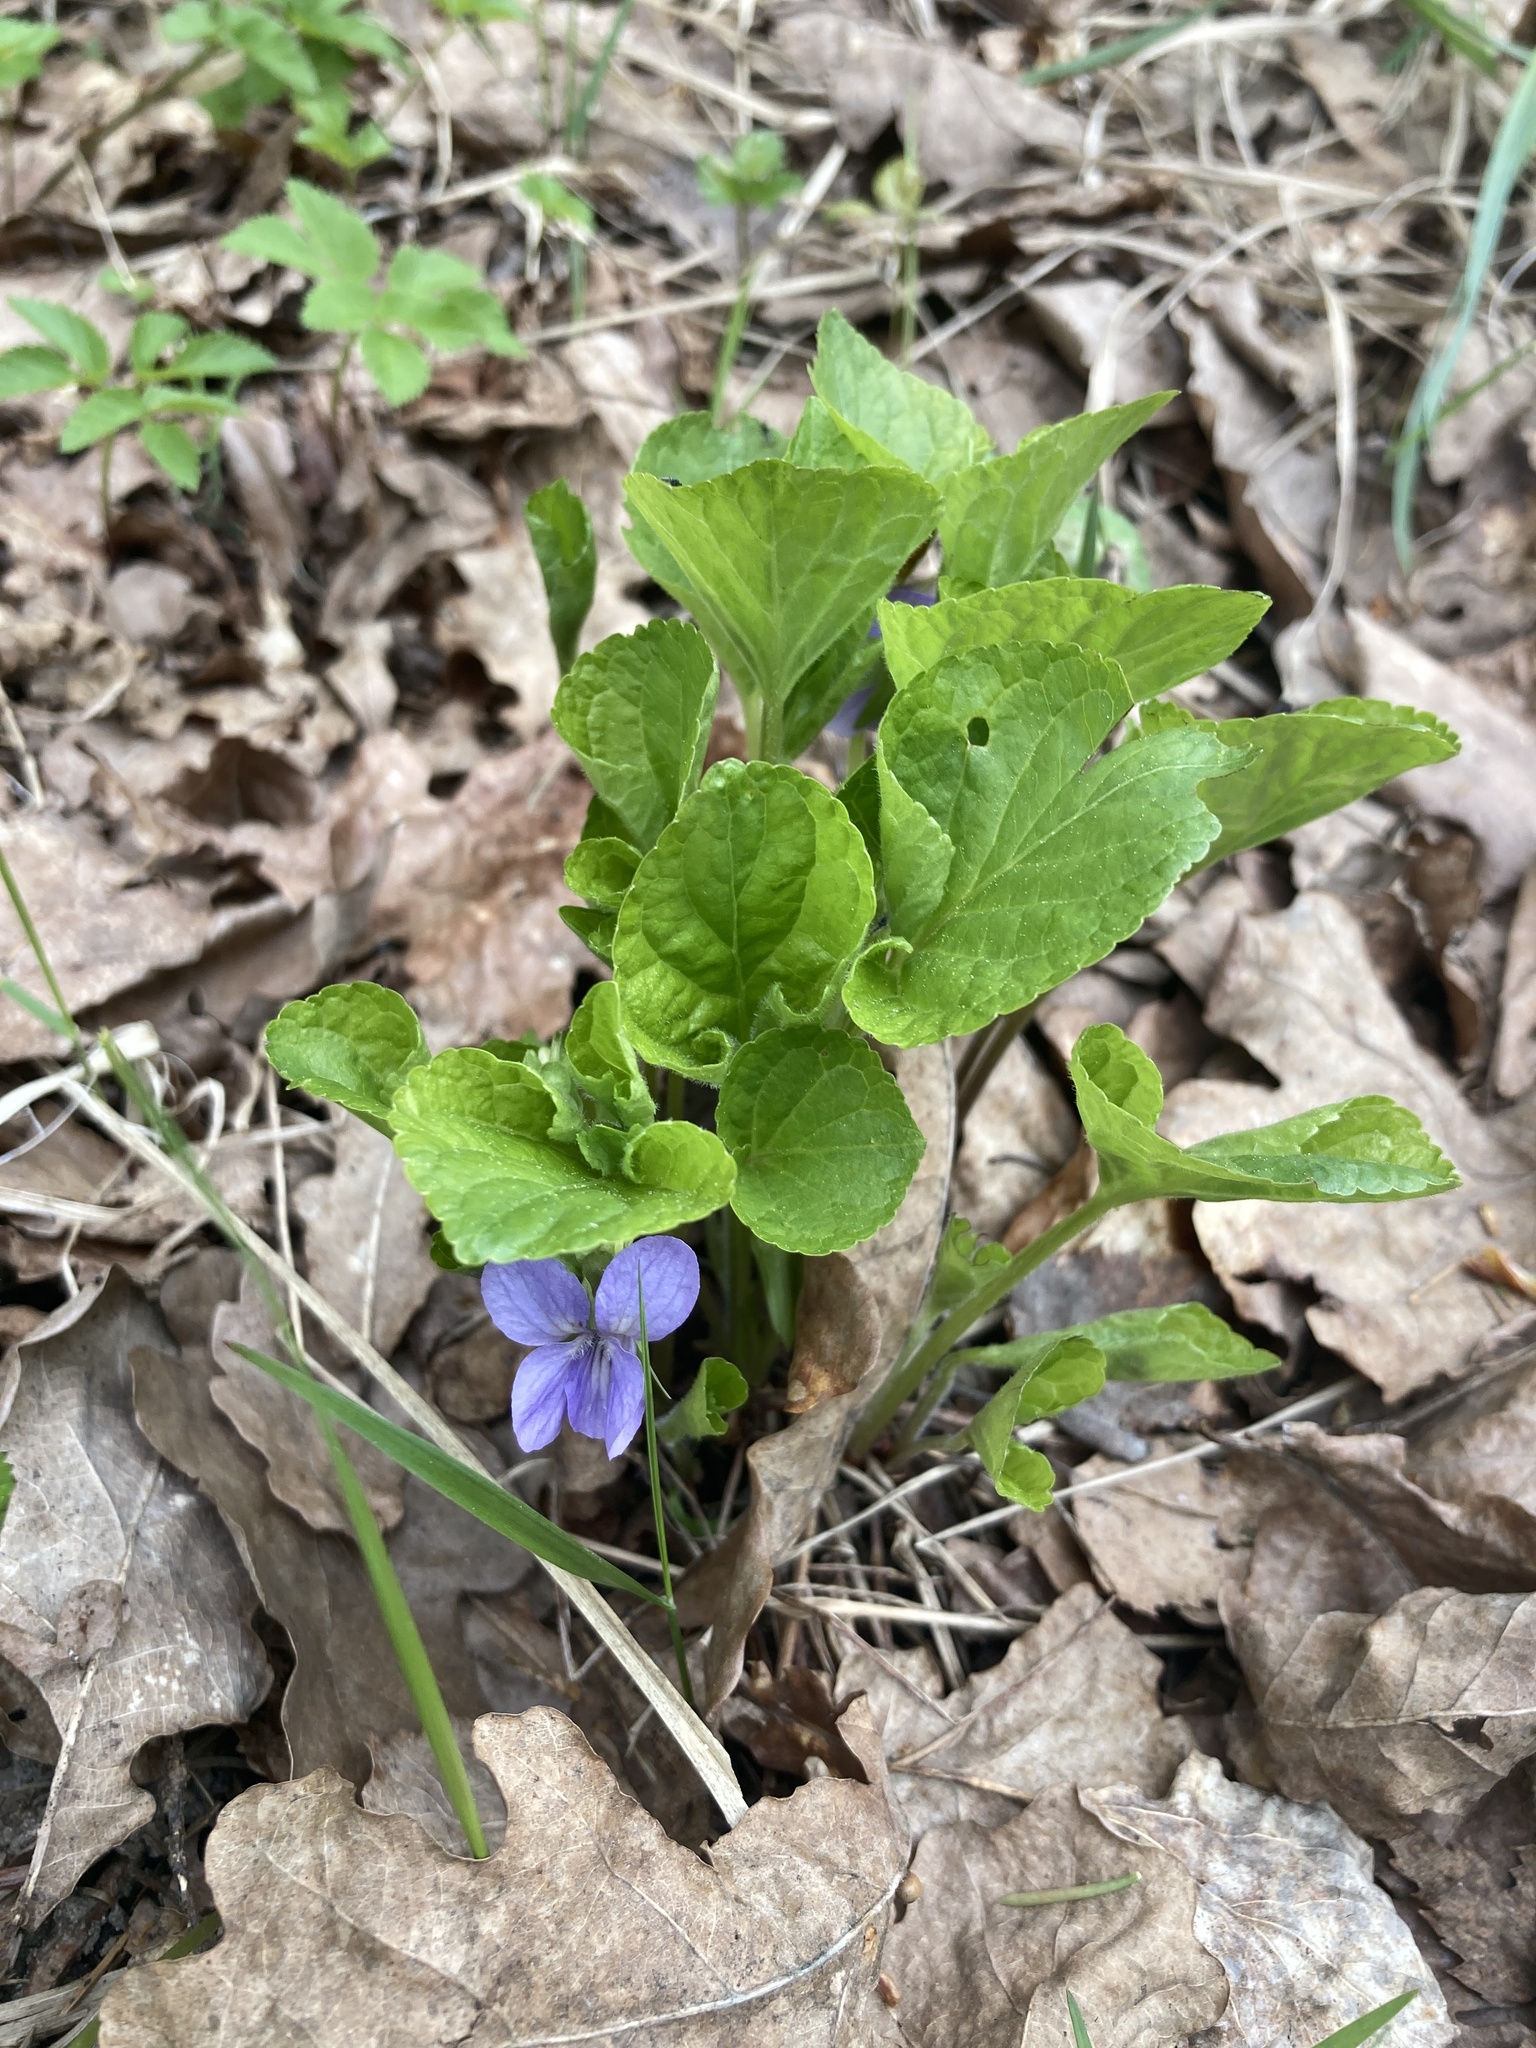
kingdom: Plantae
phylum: Tracheophyta
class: Magnoliopsida
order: Malpighiales
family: Violaceae
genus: Viola
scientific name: Viola mirabilis
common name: Wonder violet
